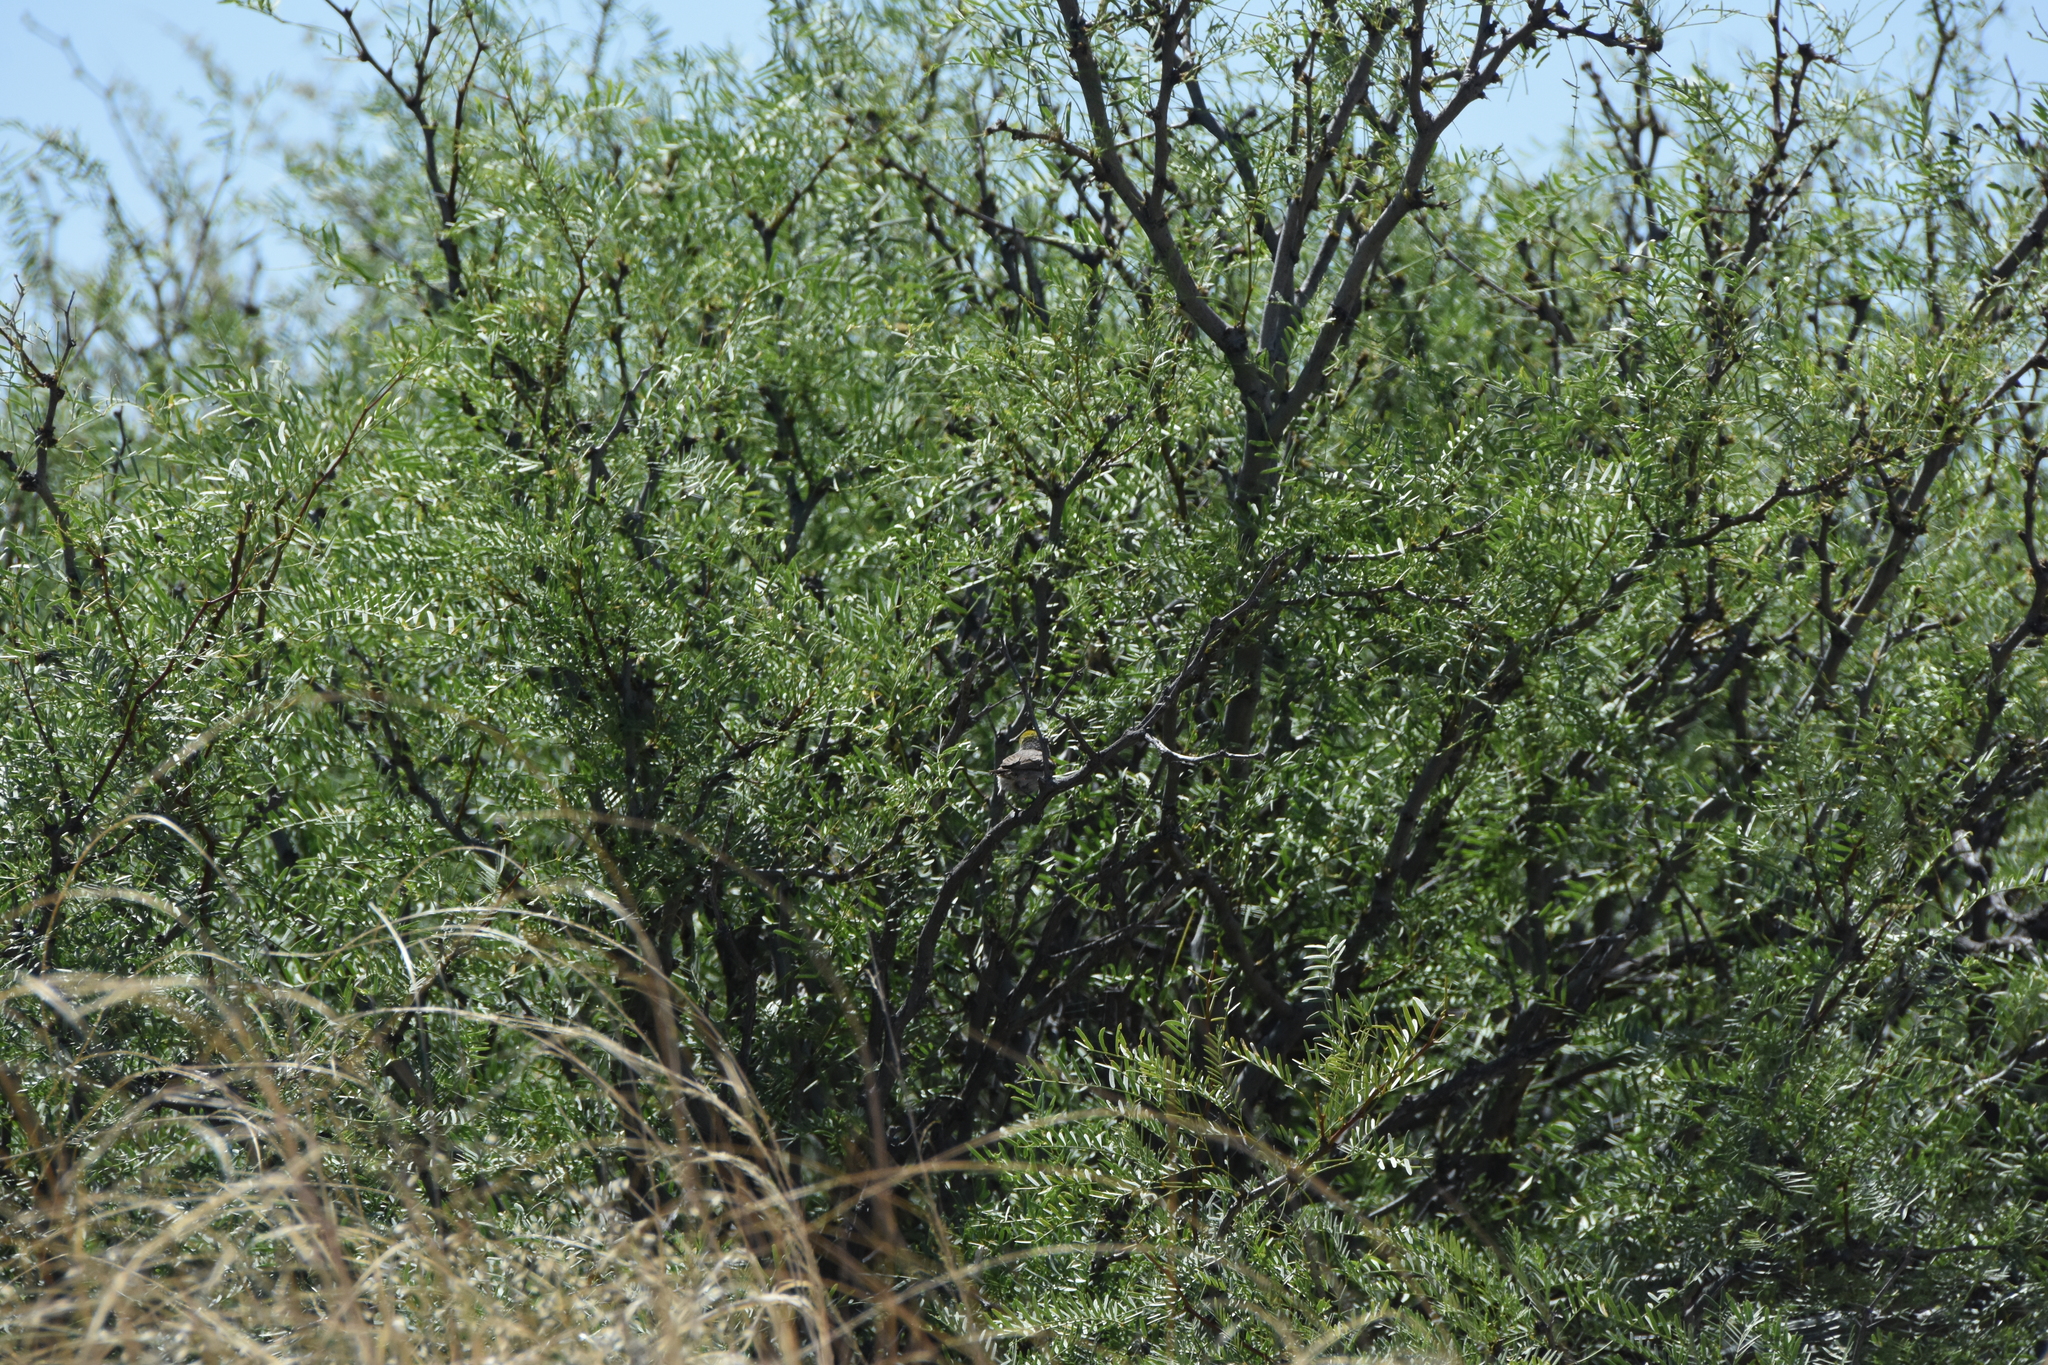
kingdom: Animalia
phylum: Chordata
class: Aves
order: Passeriformes
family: Remizidae
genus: Auriparus
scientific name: Auriparus flaviceps
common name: Verdin
